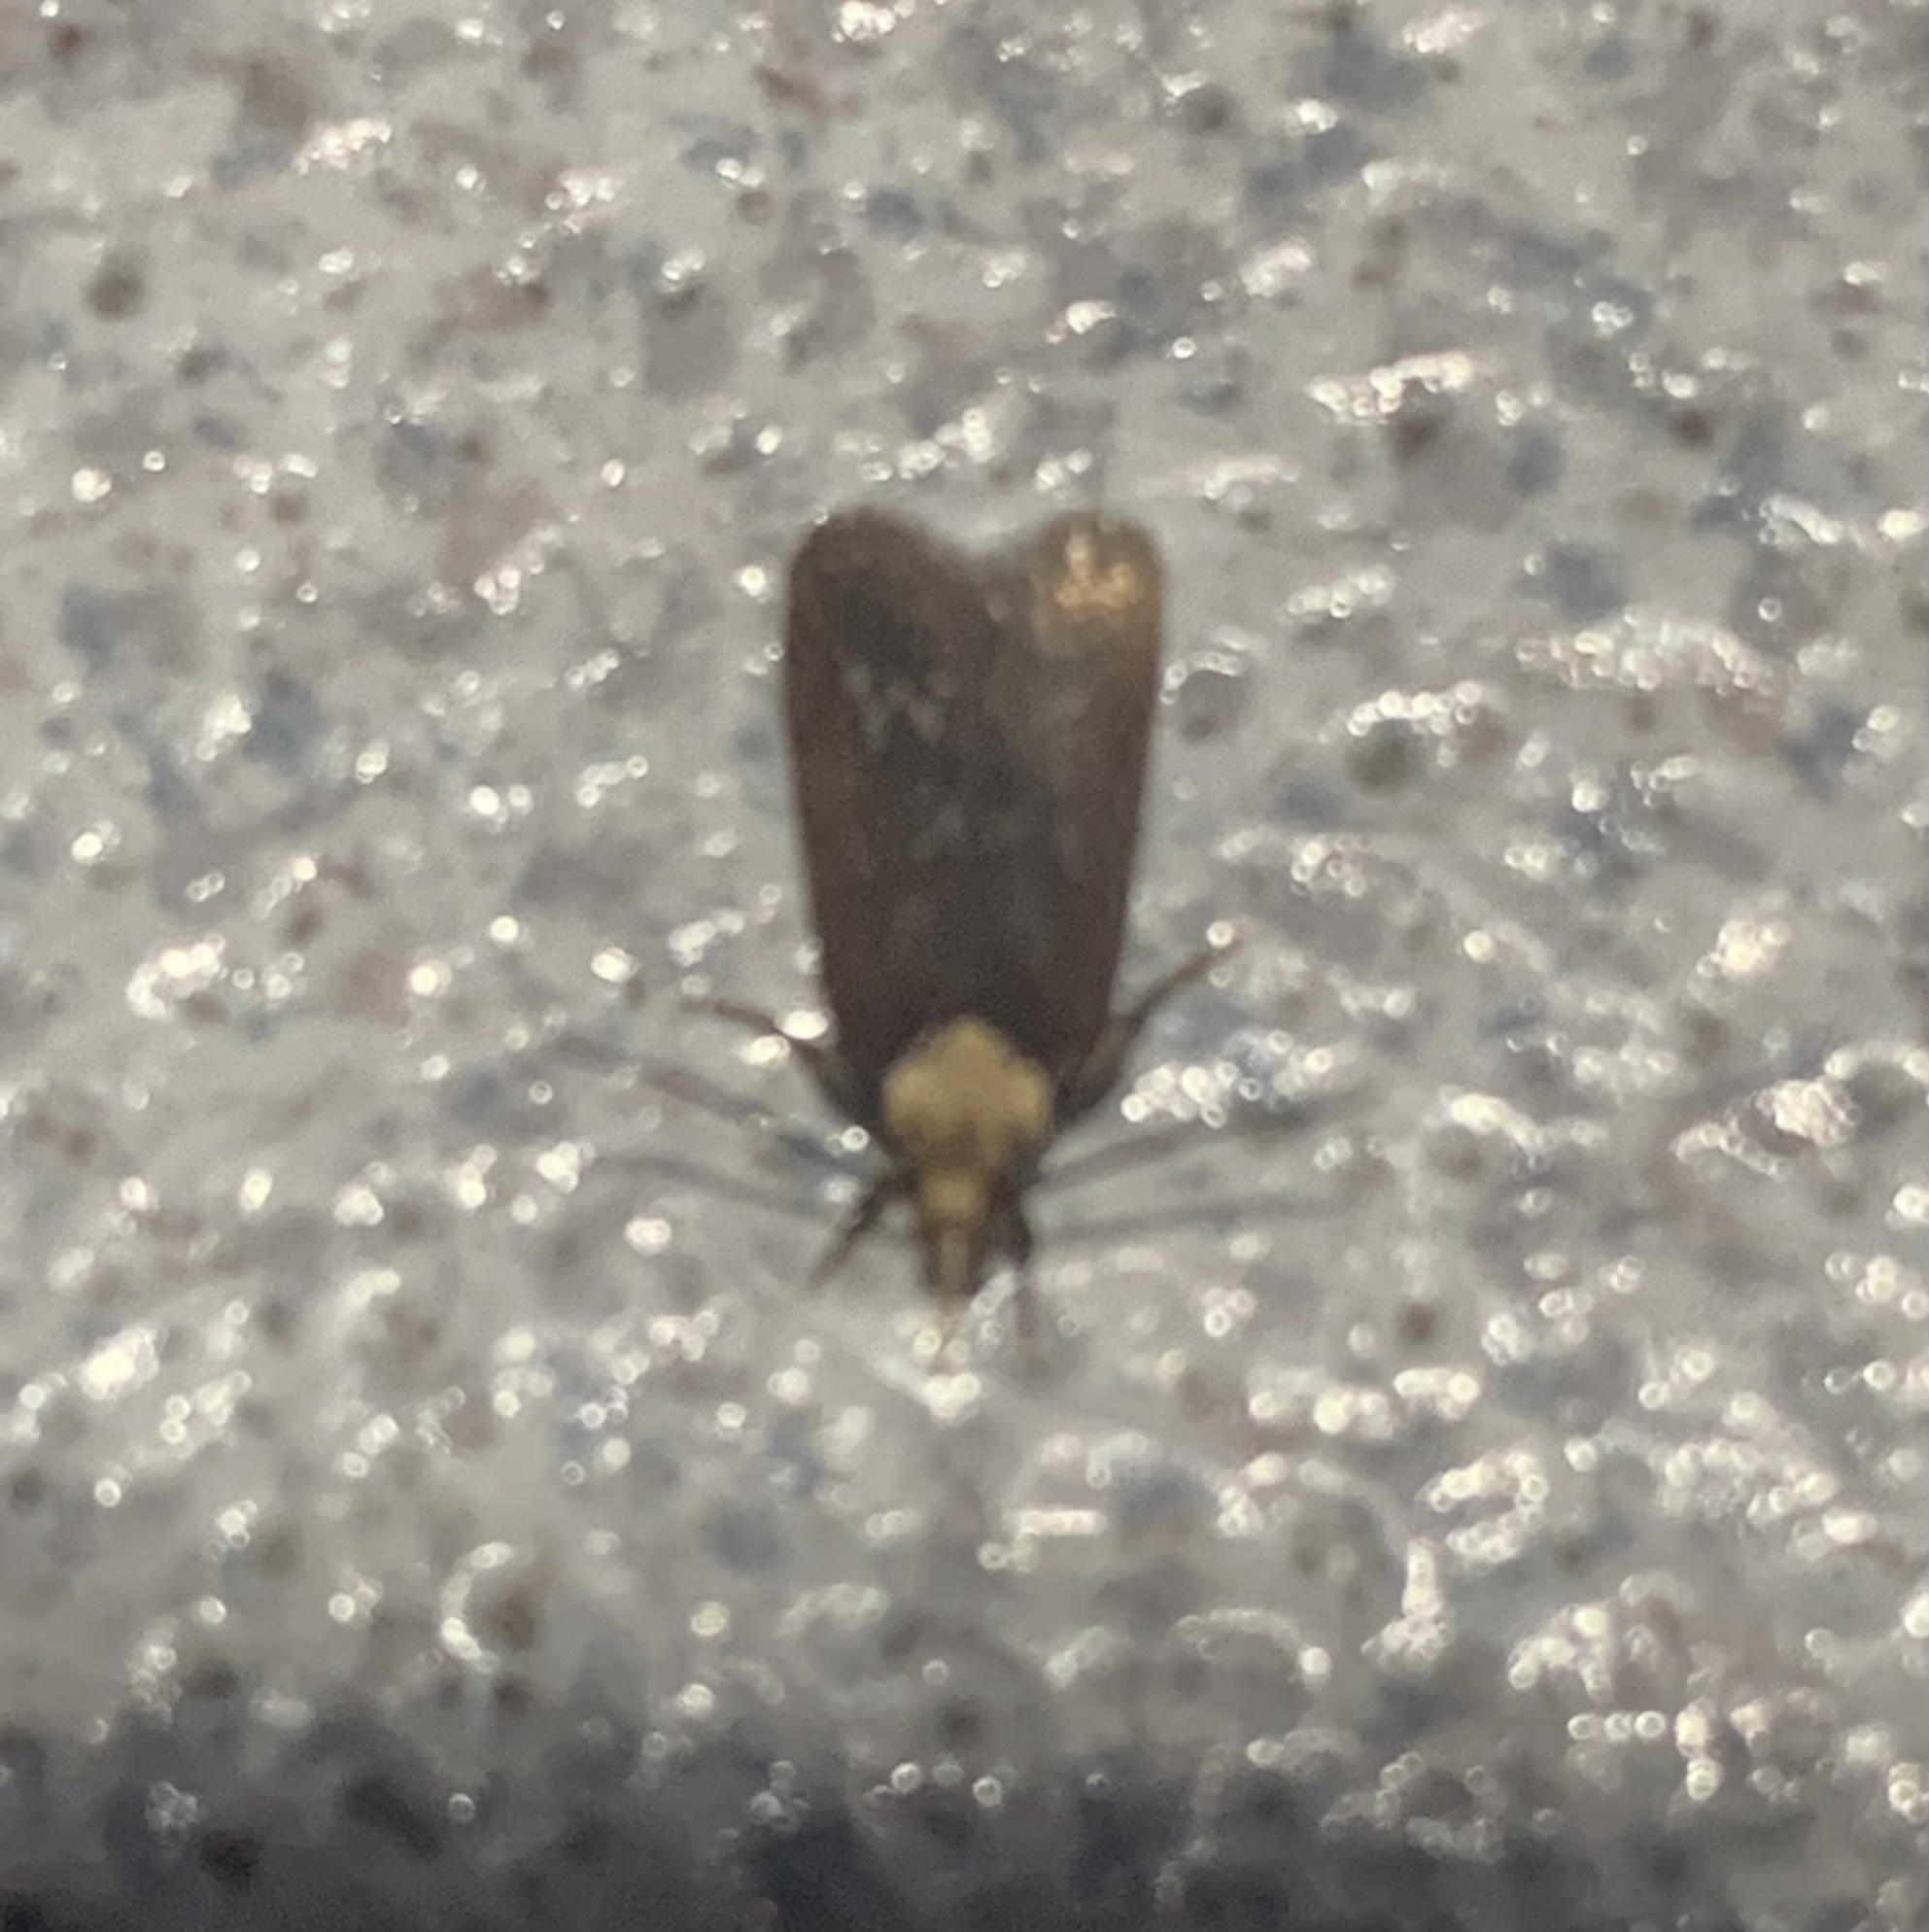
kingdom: Animalia
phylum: Arthropoda
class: Insecta
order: Lepidoptera
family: Depressariidae
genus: Depressaria
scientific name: Depressaria depressana
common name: Lost flat-body
